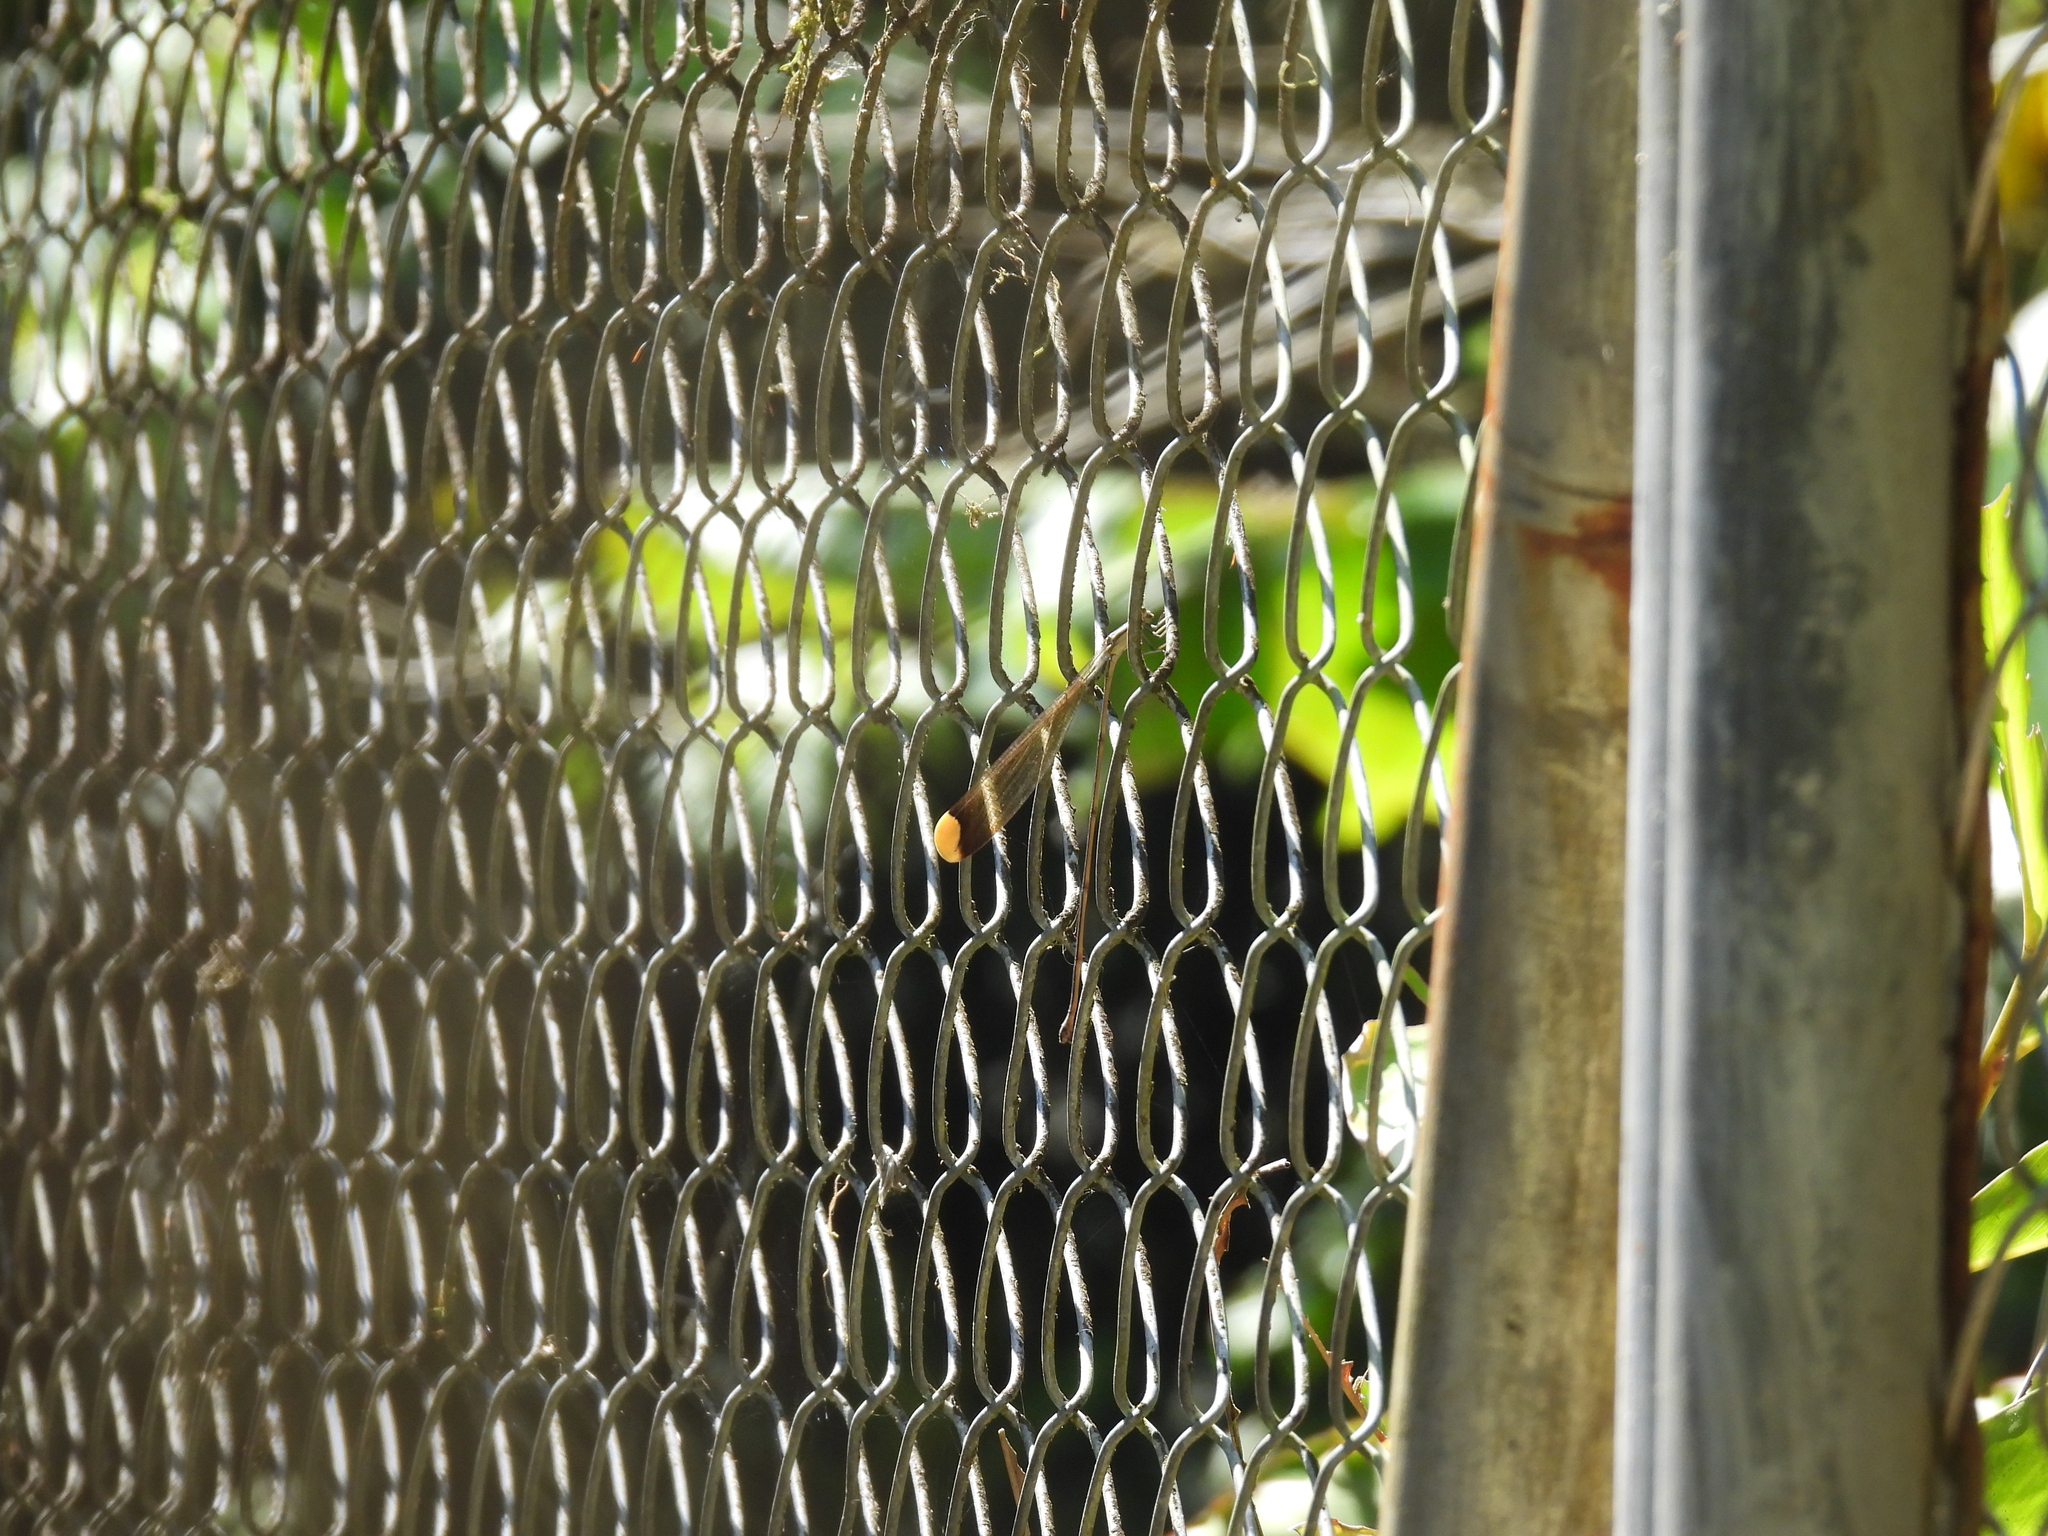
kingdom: Animalia
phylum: Arthropoda
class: Insecta
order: Odonata
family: Coenagrionidae
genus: Mecistogaster
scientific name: Mecistogaster ornata
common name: Ornate helicopter
